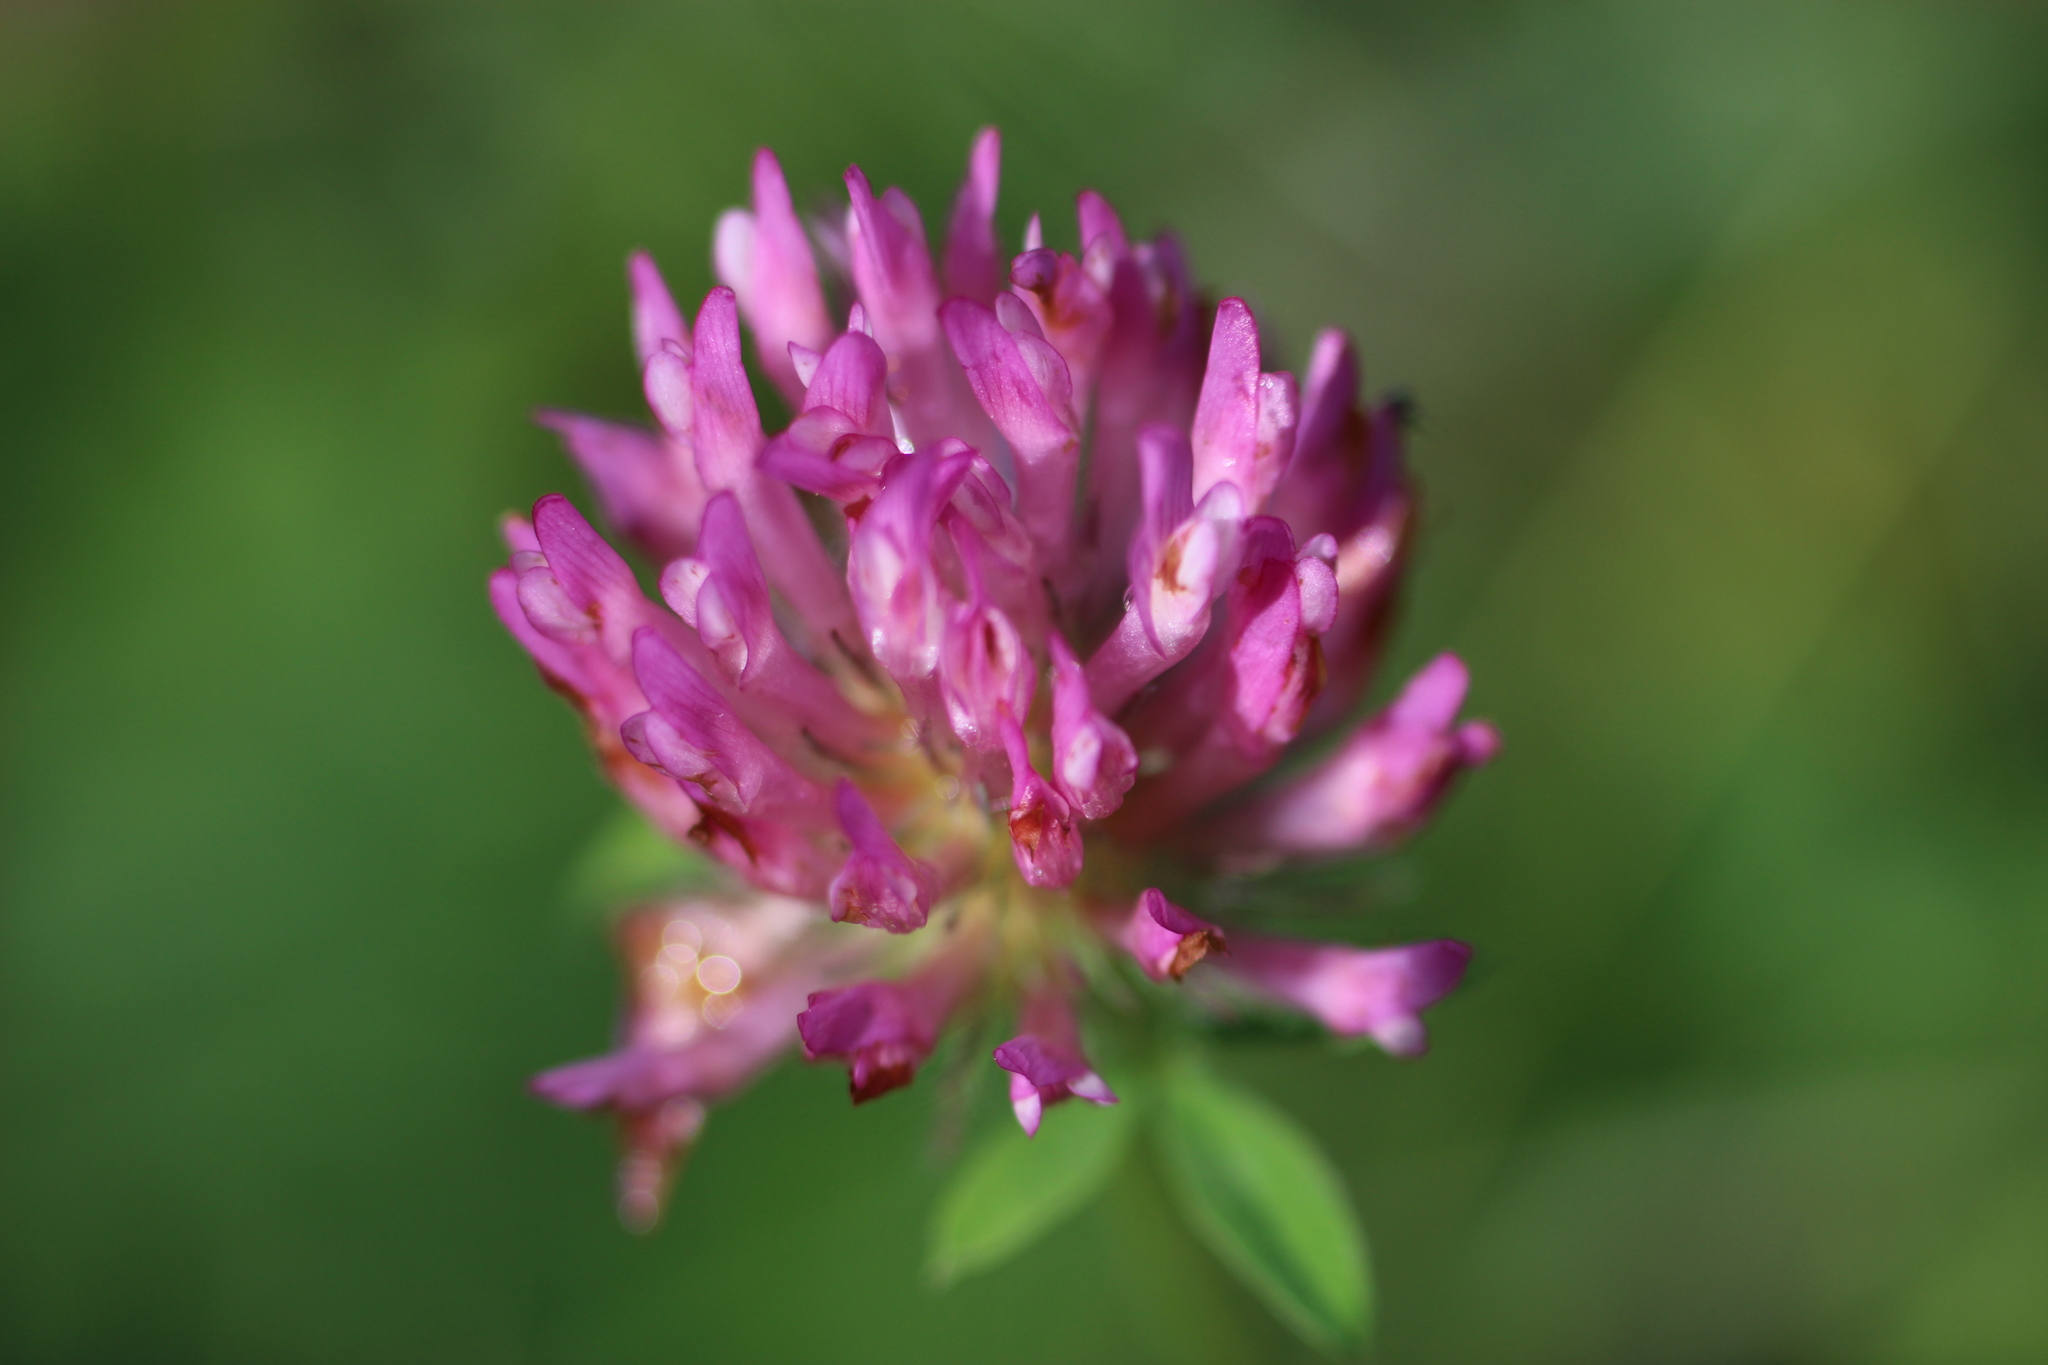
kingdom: Plantae
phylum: Tracheophyta
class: Magnoliopsida
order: Fabales
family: Fabaceae
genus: Trifolium
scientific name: Trifolium pratense
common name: Red clover
